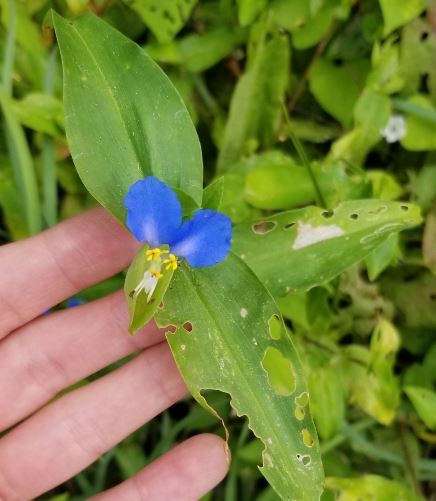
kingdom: Plantae
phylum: Tracheophyta
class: Liliopsida
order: Commelinales
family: Commelinaceae
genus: Commelina
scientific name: Commelina communis
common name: Asiatic dayflower
